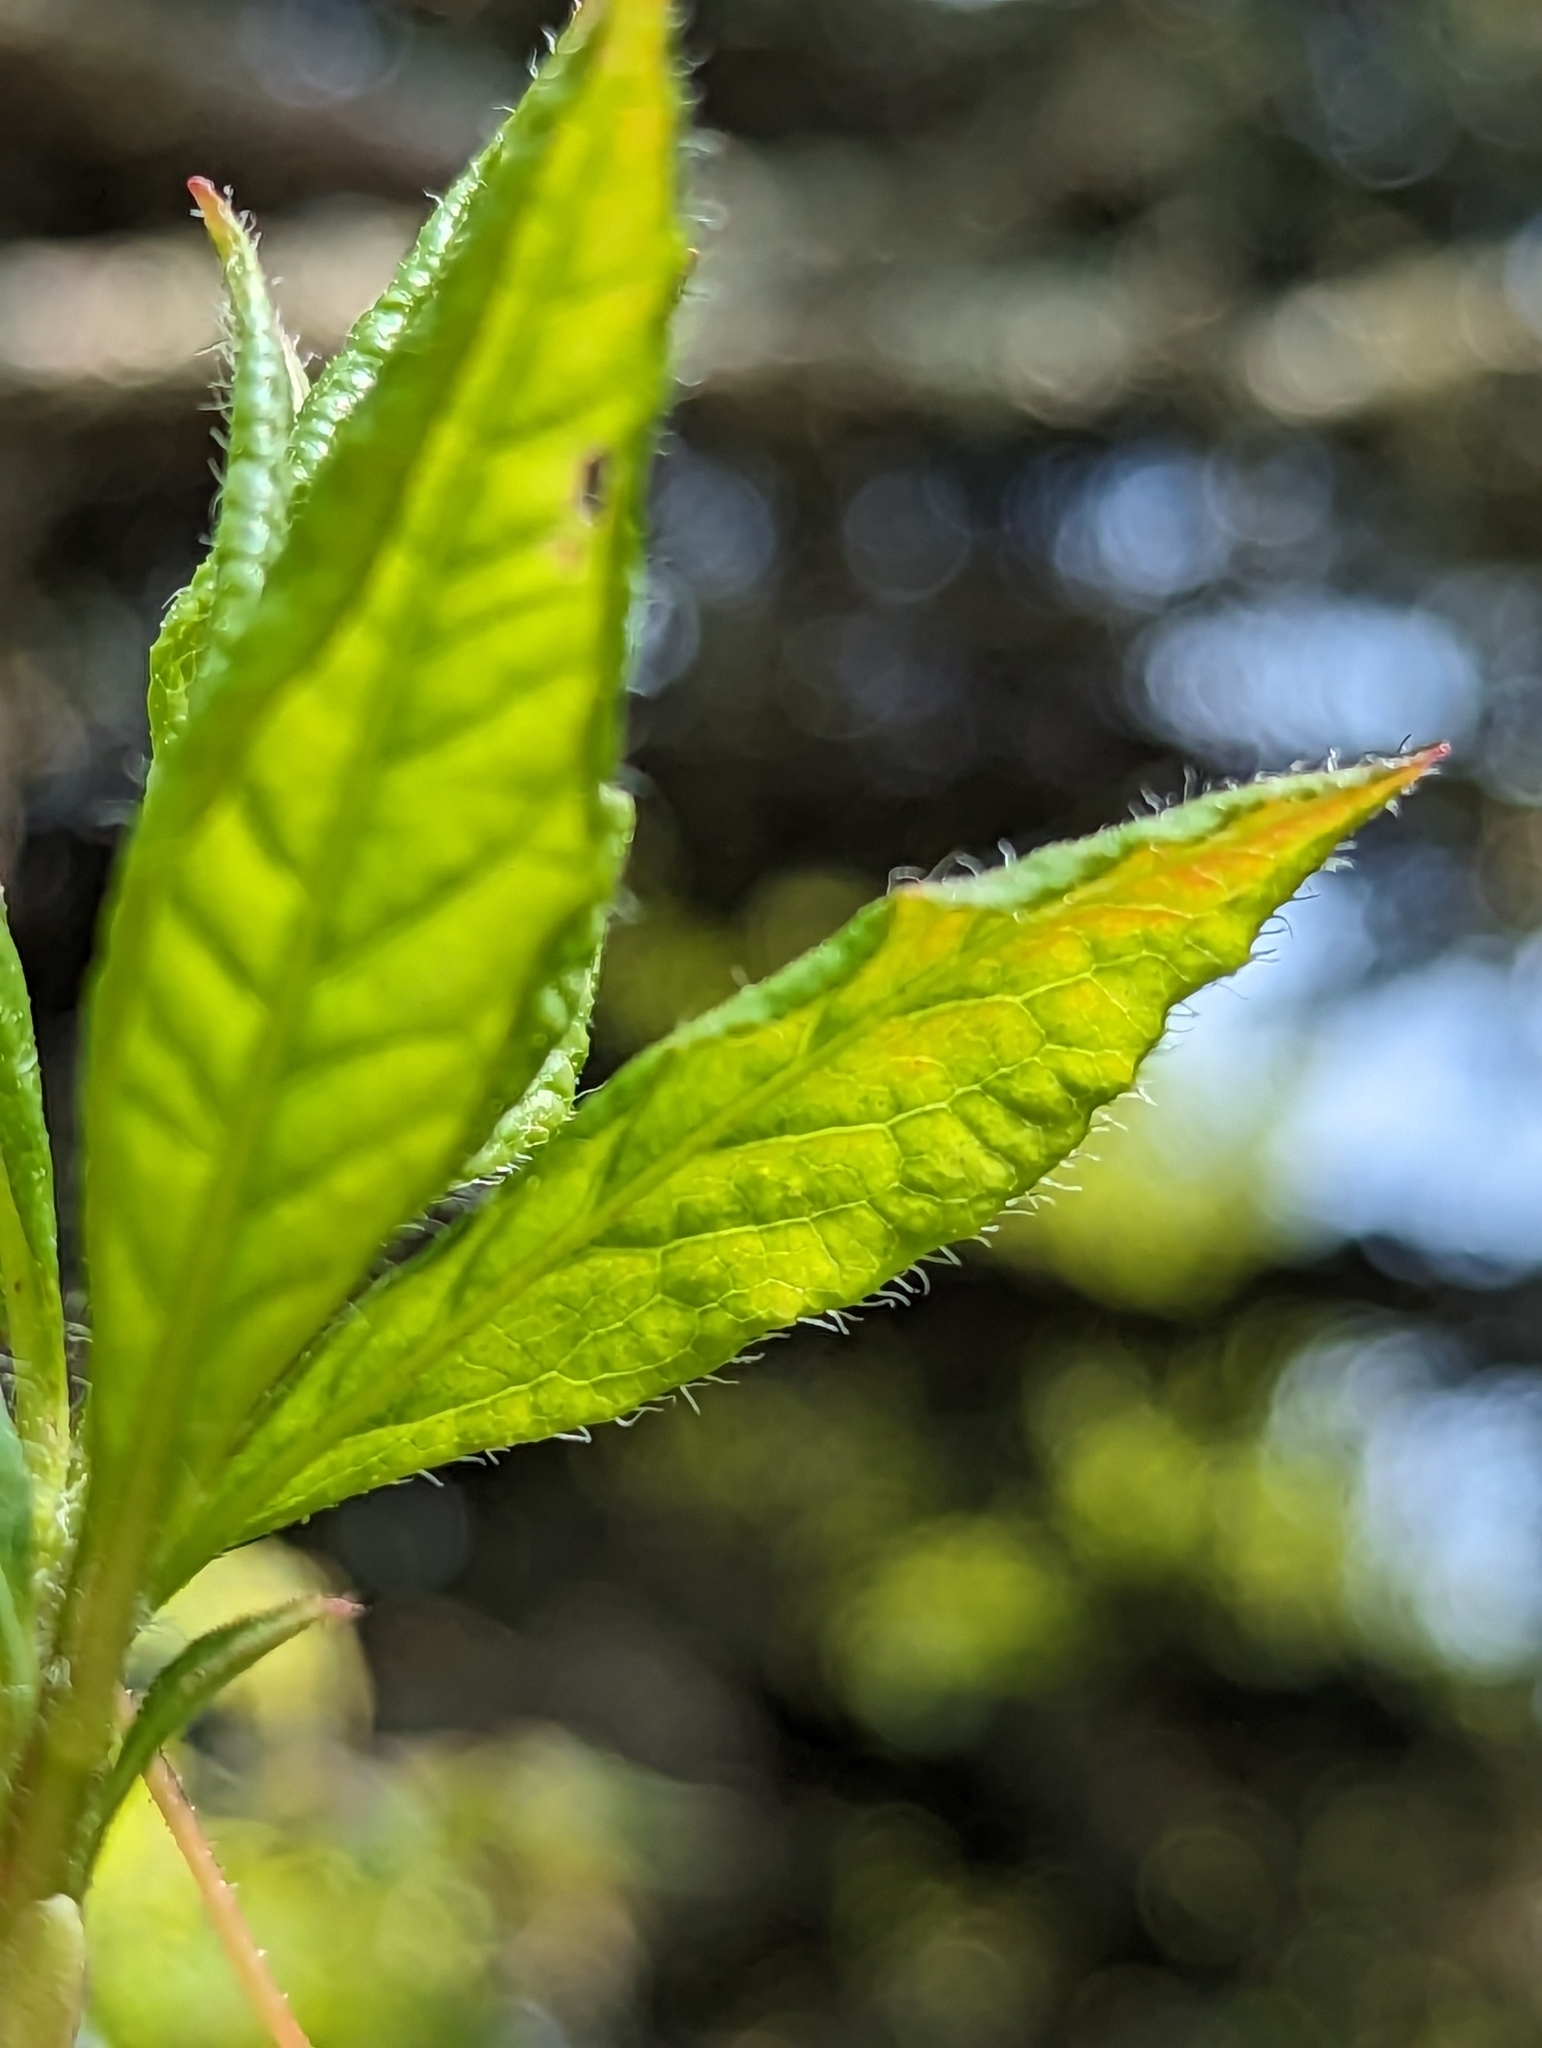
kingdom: Plantae
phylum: Tracheophyta
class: Magnoliopsida
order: Ericales
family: Ericaceae
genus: Rhododendron
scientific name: Rhododendron vaseyi
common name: Pink-shell azalea
